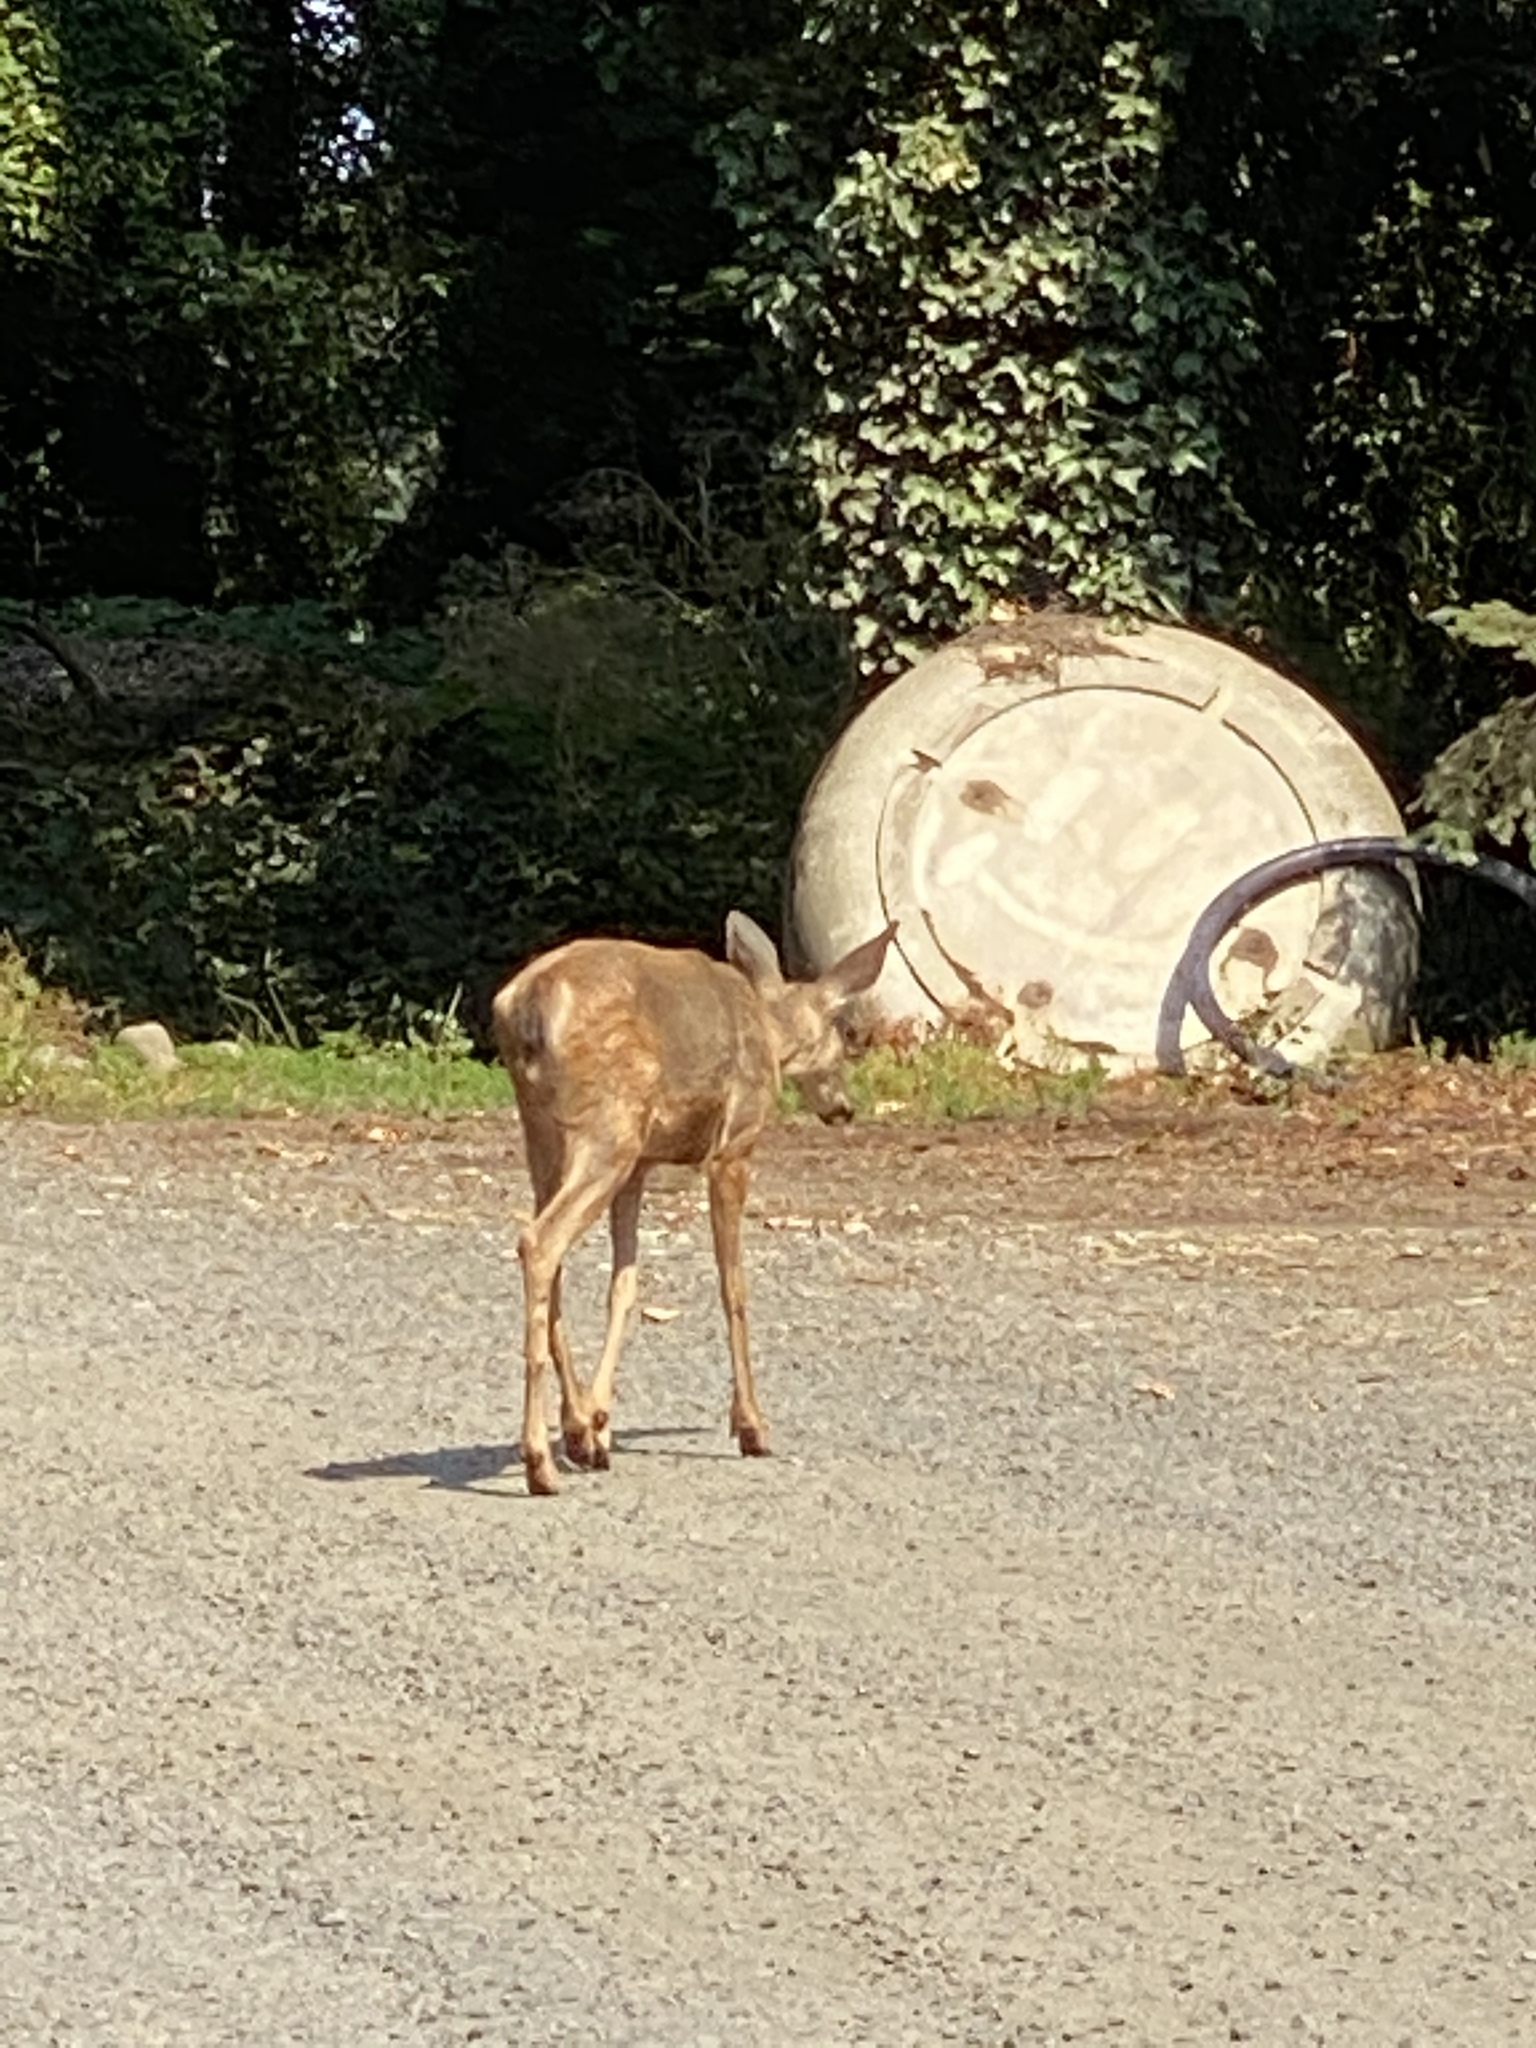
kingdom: Animalia
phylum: Chordata
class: Mammalia
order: Artiodactyla
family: Cervidae
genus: Odocoileus
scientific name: Odocoileus hemionus
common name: Mule deer
